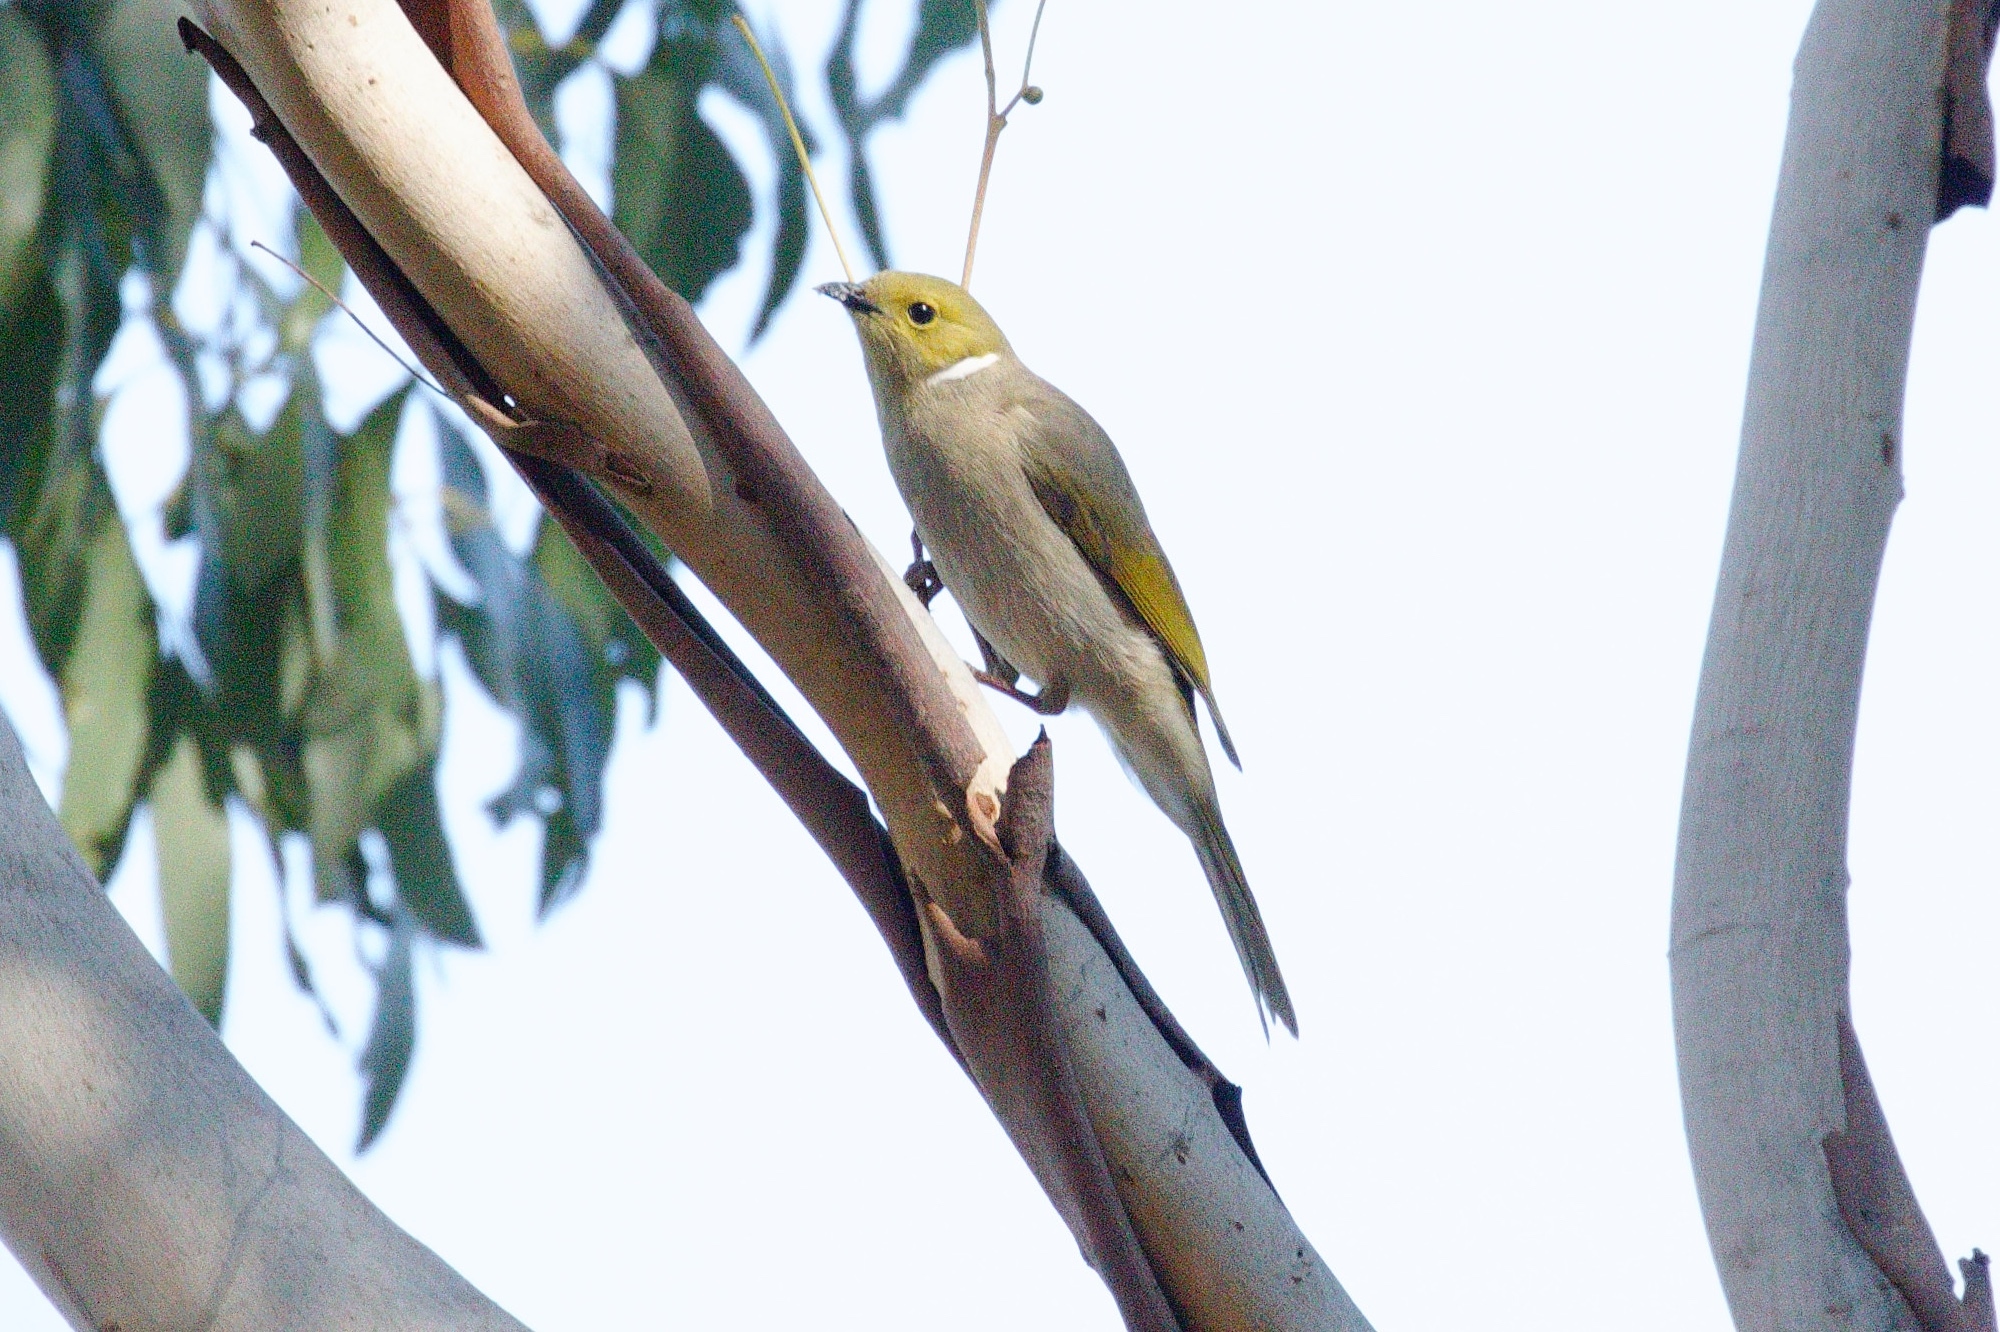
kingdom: Animalia
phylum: Chordata
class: Aves
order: Passeriformes
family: Meliphagidae
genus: Ptilotula
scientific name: Ptilotula penicillata
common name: White-plumed honeyeater
